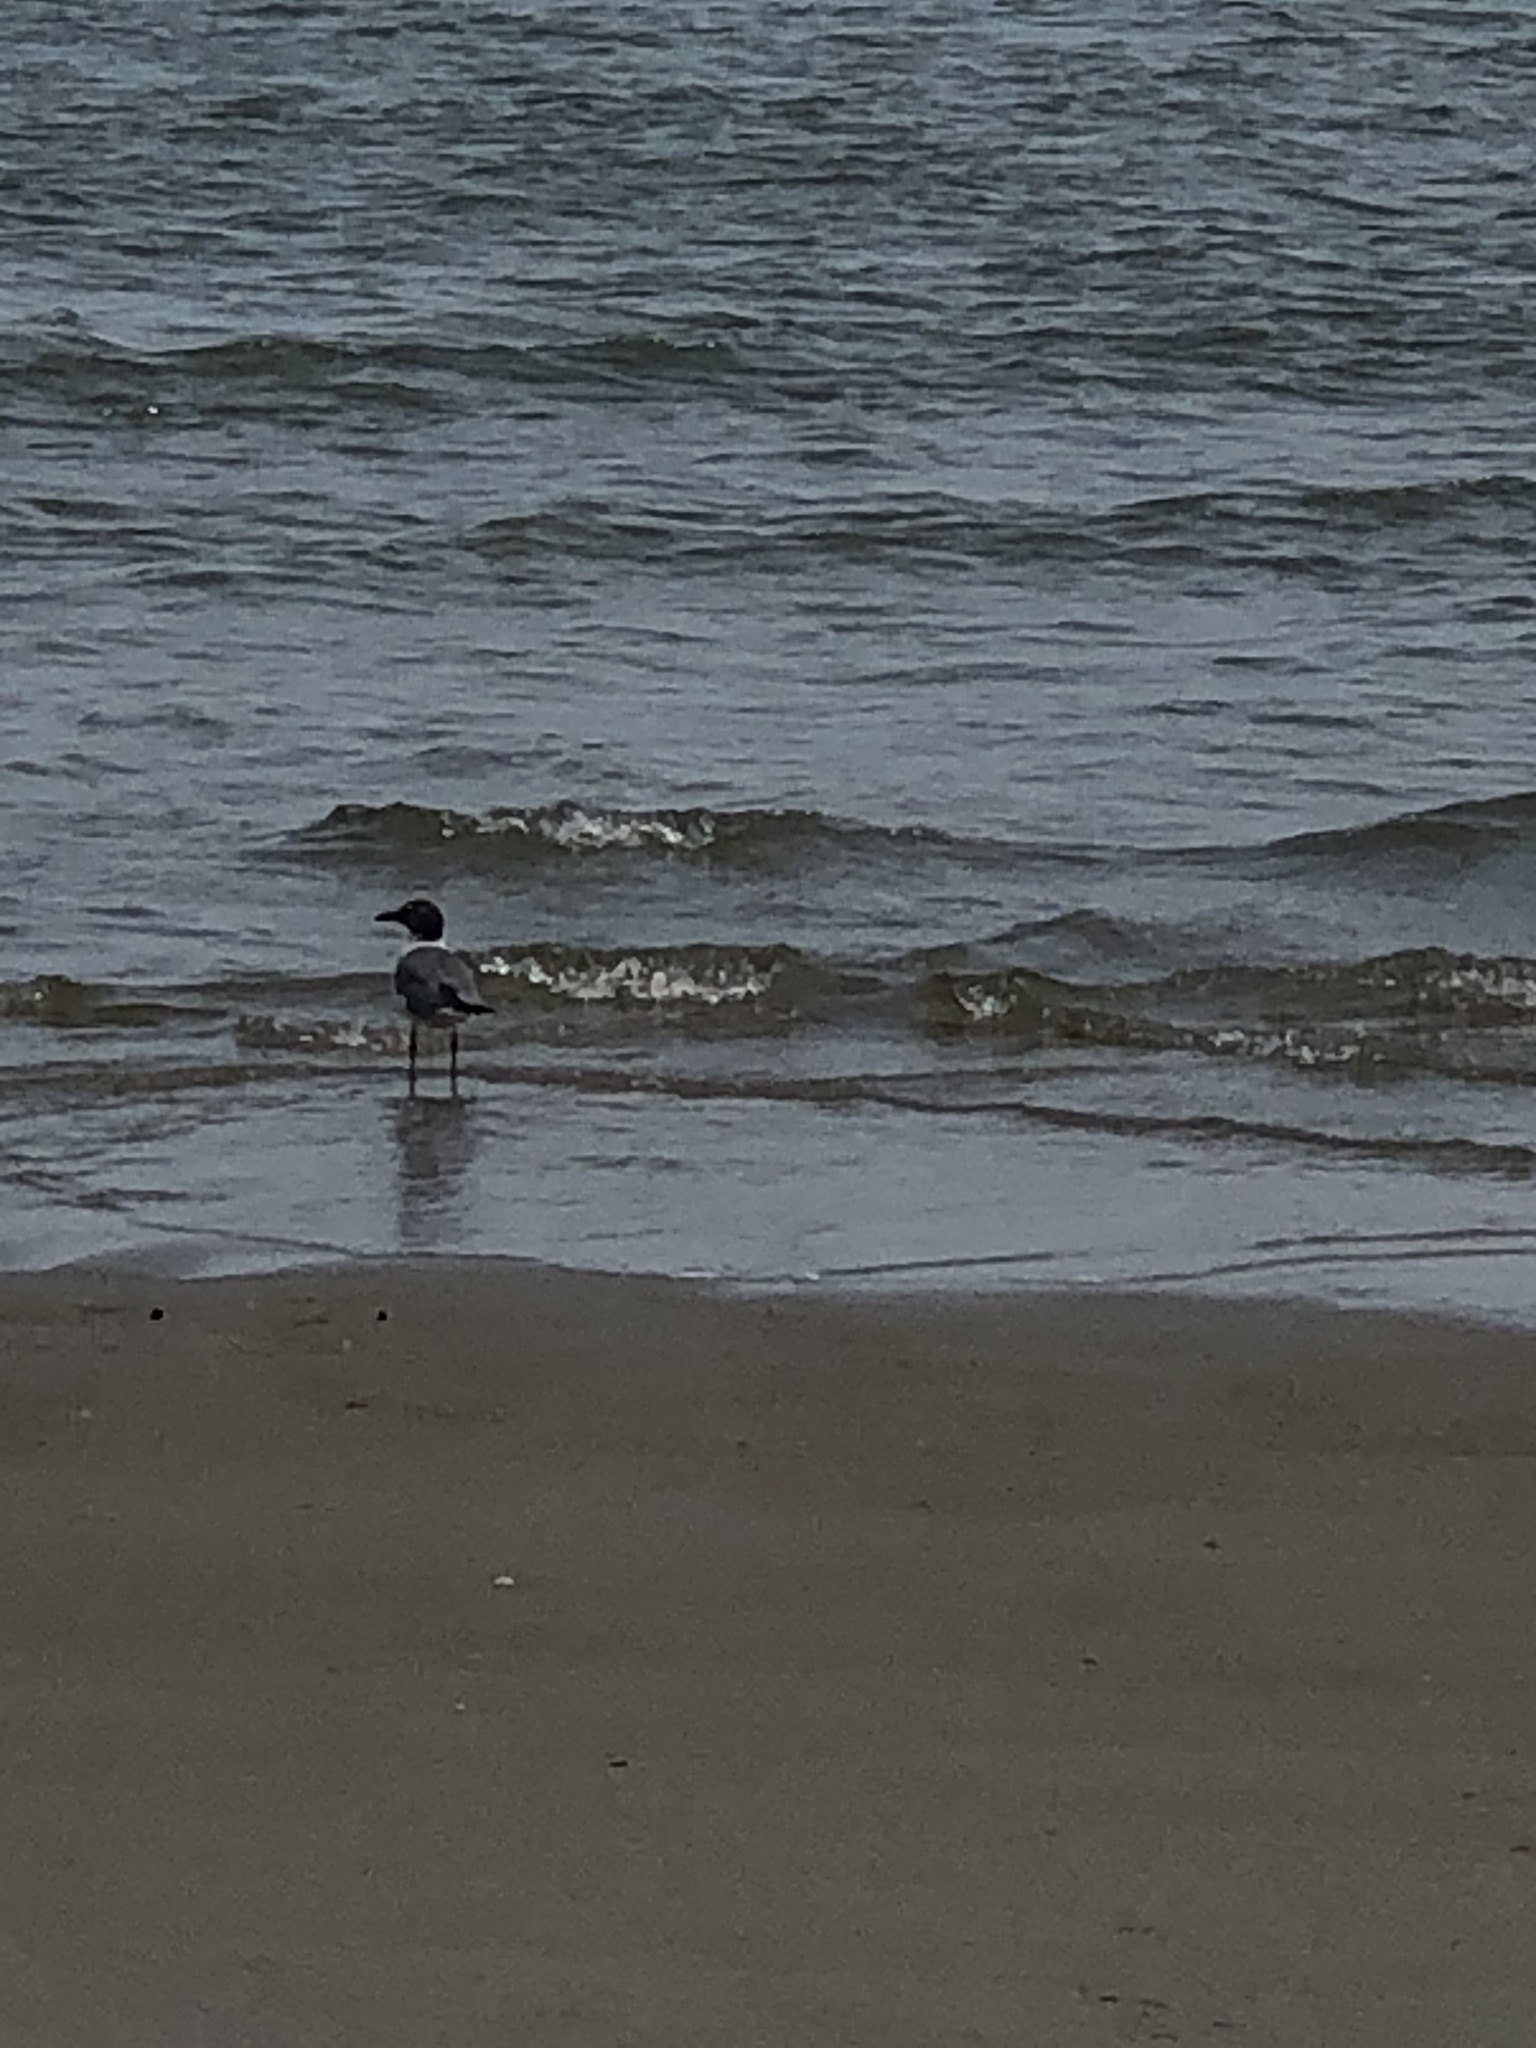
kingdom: Animalia
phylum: Chordata
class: Aves
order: Charadriiformes
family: Laridae
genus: Leucophaeus
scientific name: Leucophaeus atricilla
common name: Laughing gull
